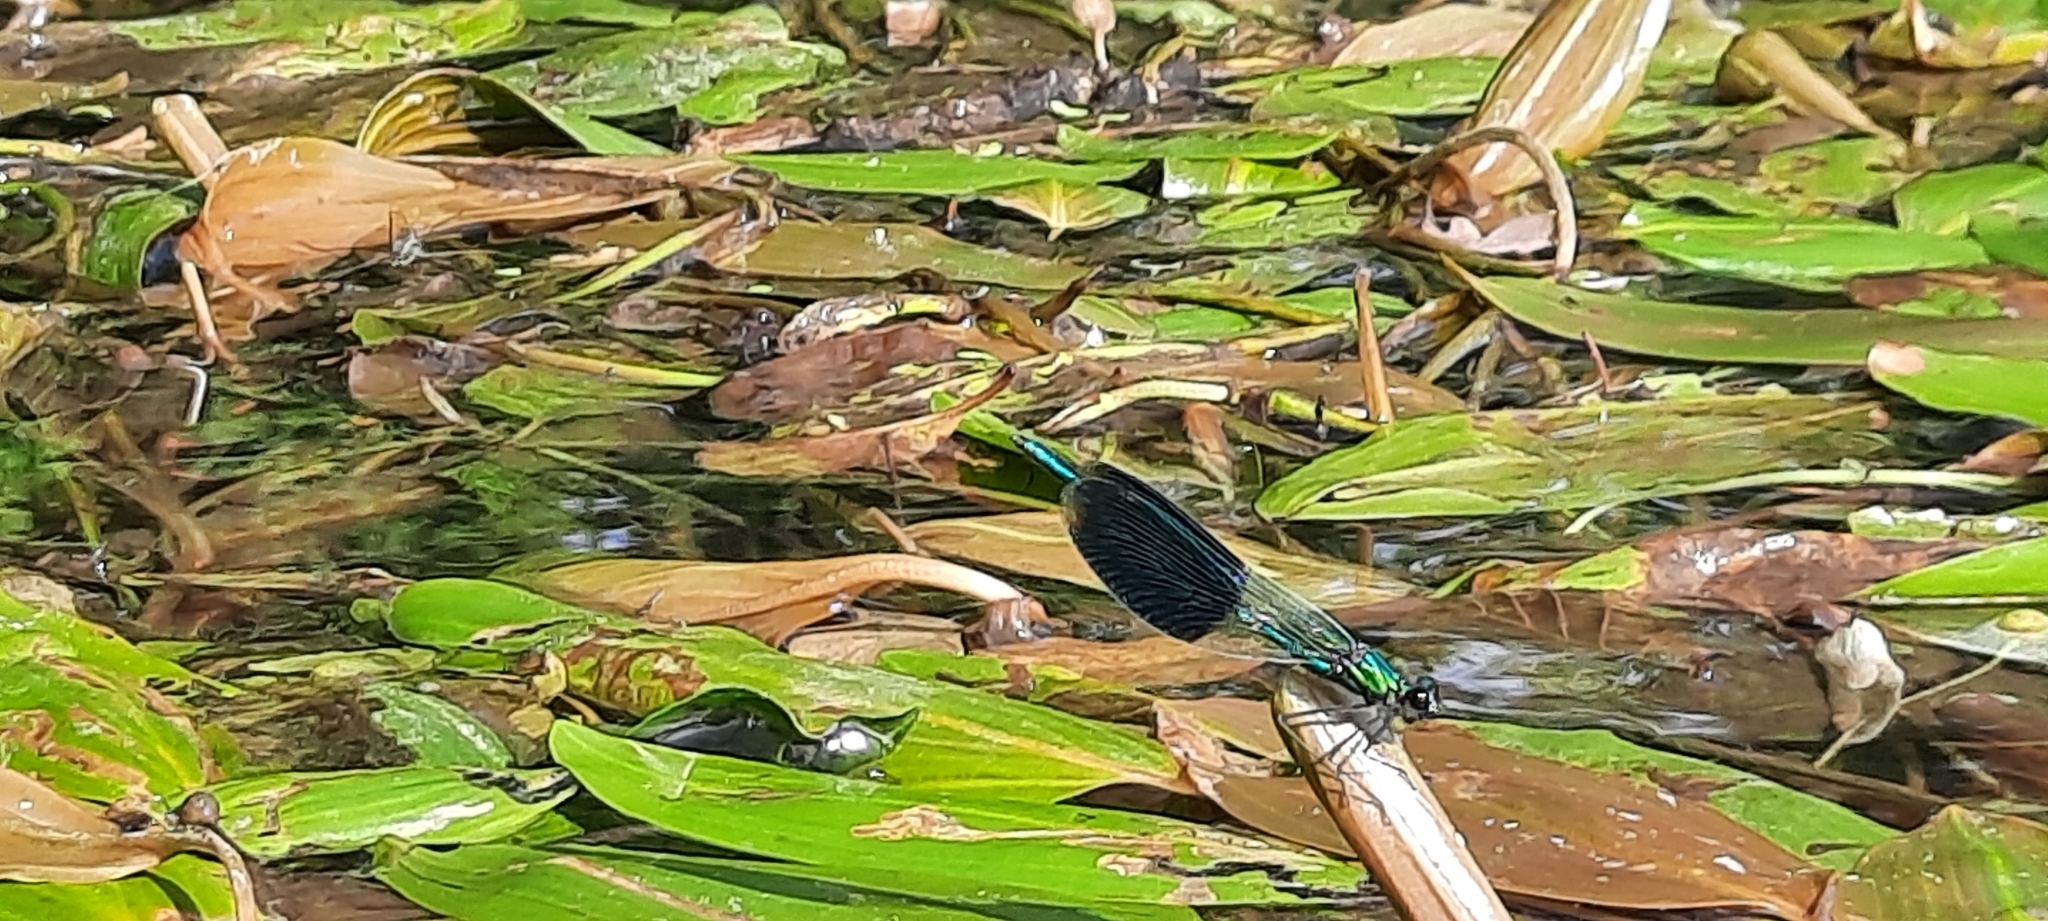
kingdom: Animalia
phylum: Arthropoda
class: Insecta
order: Odonata
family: Calopterygidae
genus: Calopteryx
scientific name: Calopteryx splendens
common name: Banded demoiselle
